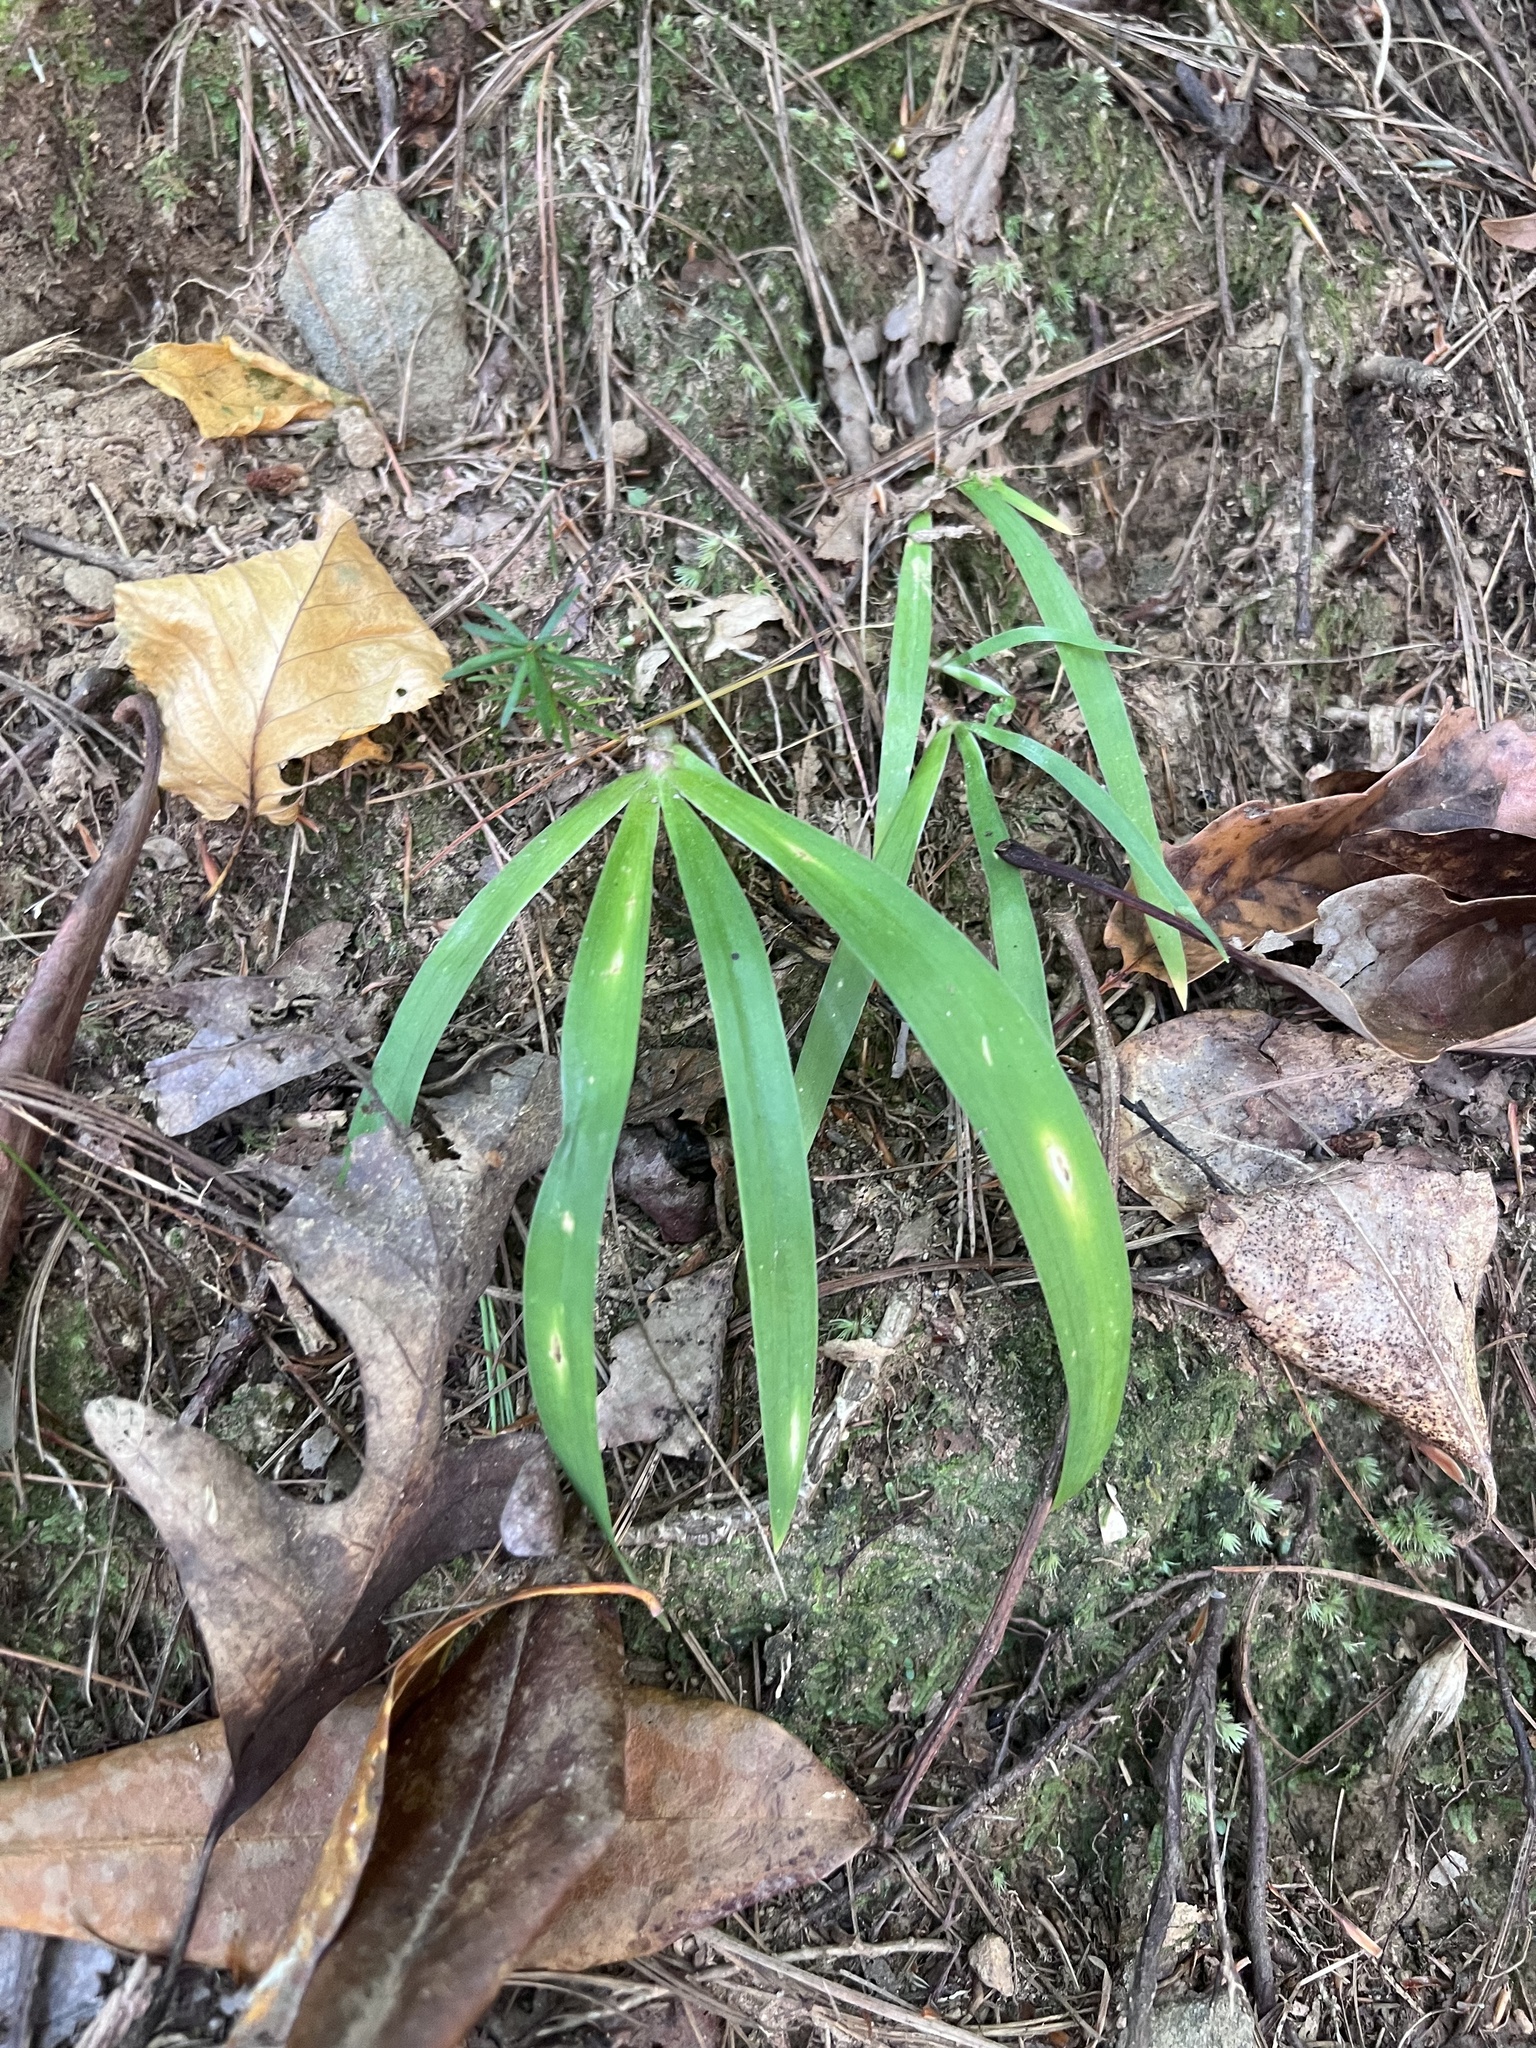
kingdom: Plantae
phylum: Tracheophyta
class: Liliopsida
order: Asparagales
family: Iridaceae
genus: Iris
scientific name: Iris cristata
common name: Crested iris
